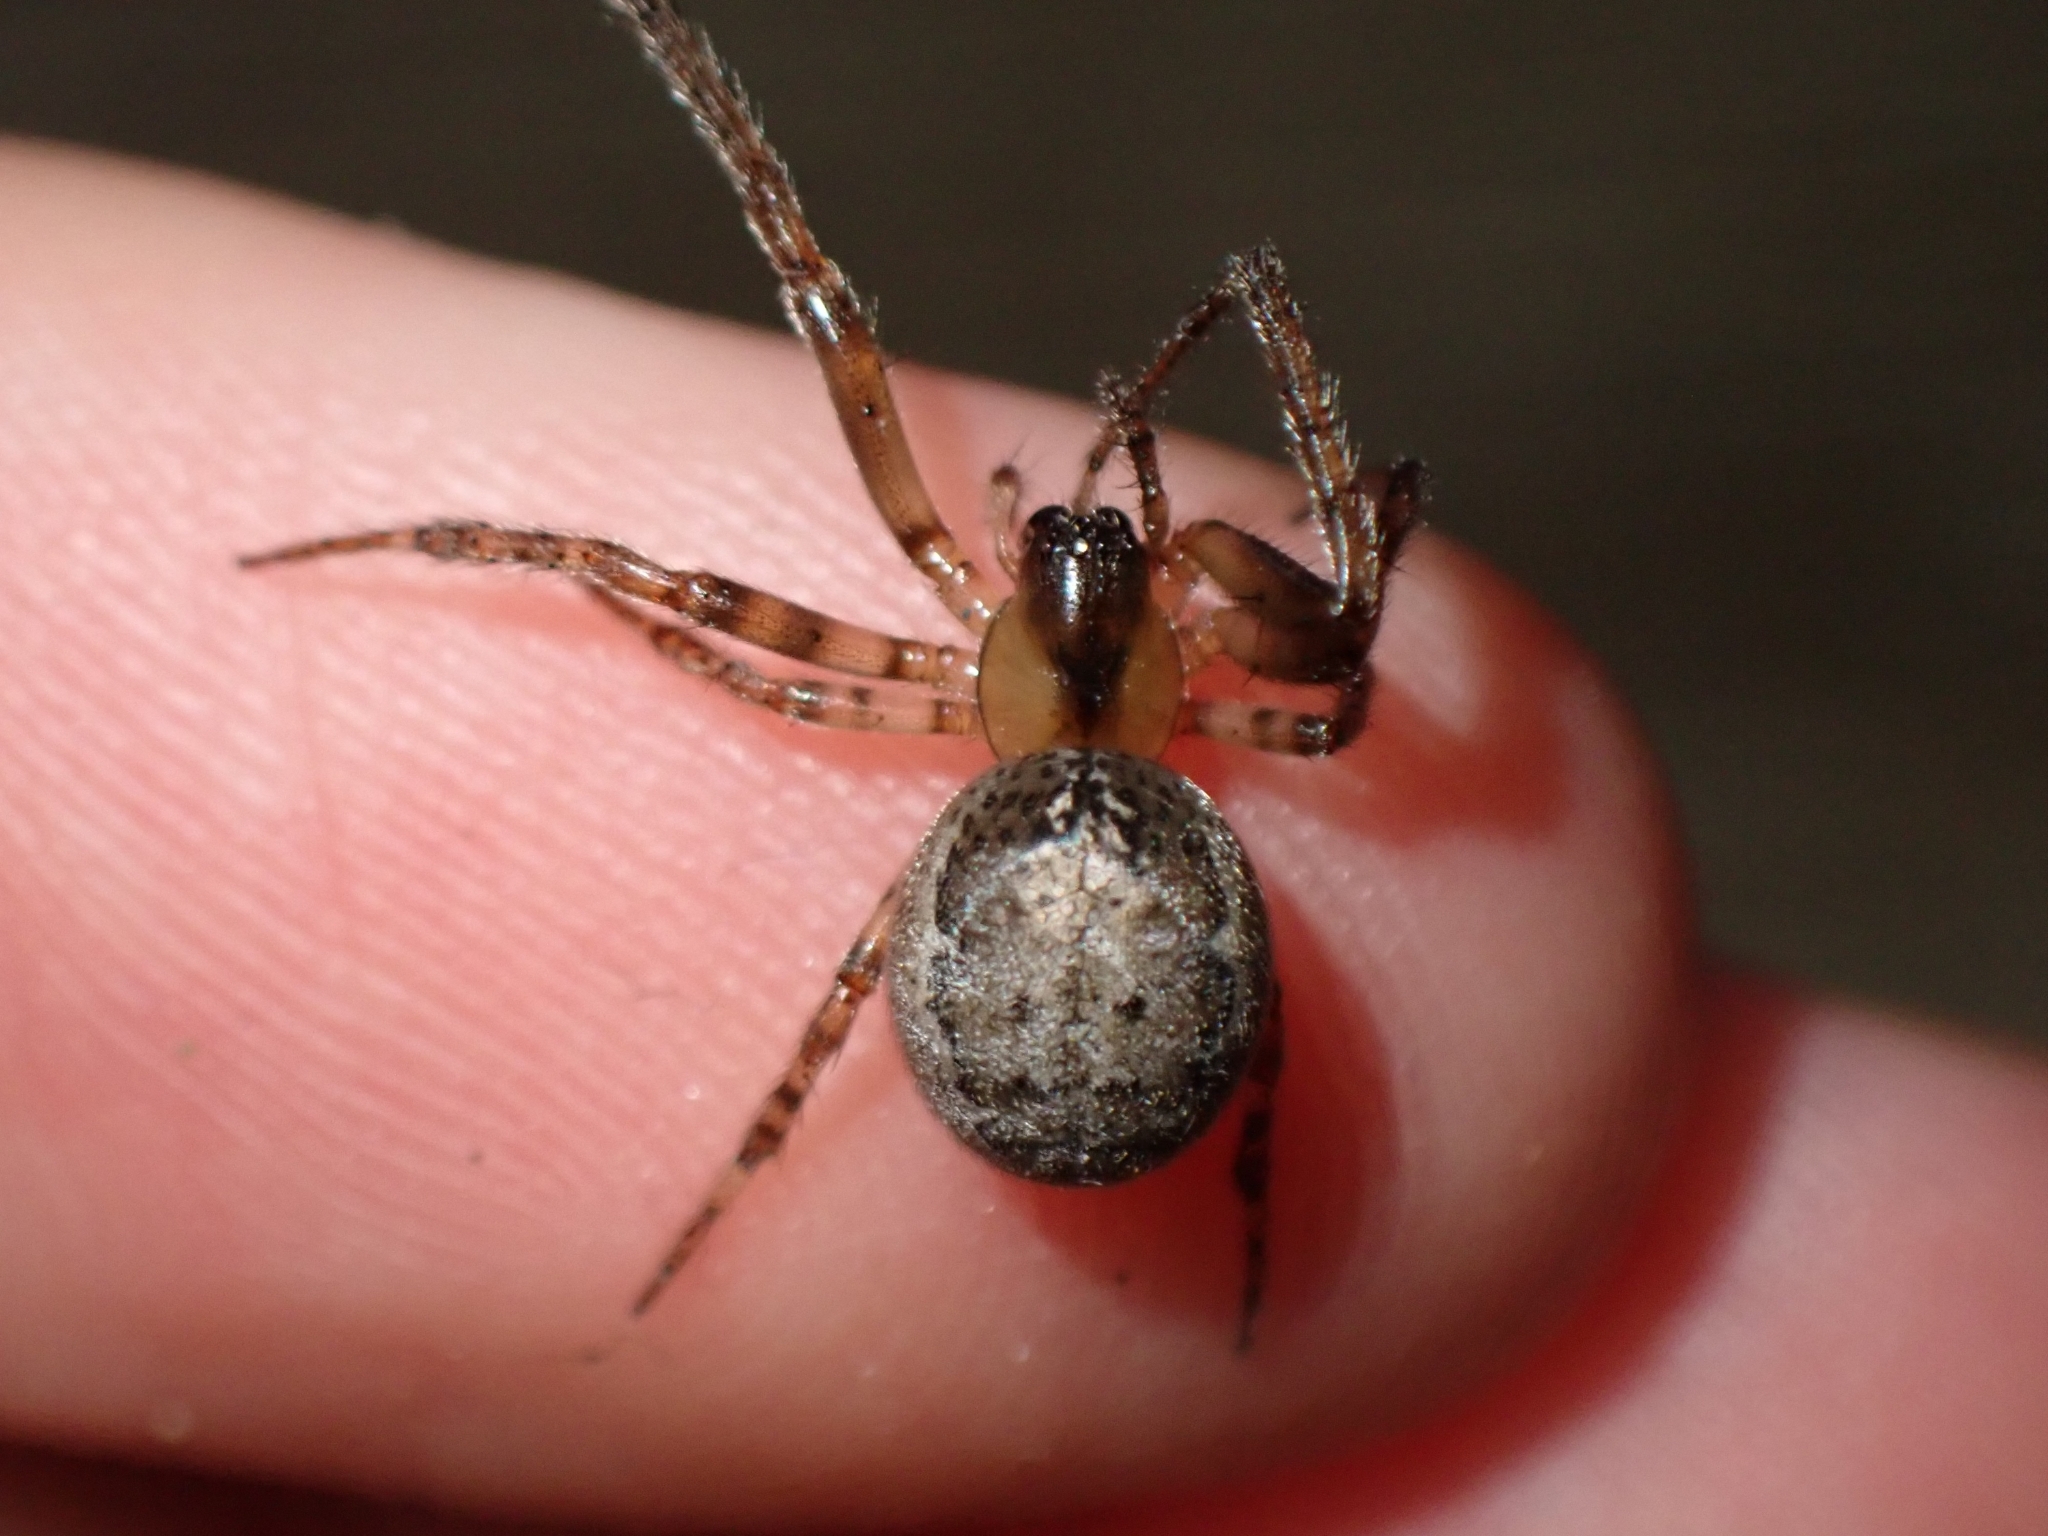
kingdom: Animalia
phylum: Arthropoda
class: Arachnida
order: Araneae
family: Araneidae
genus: Zygiella
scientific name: Zygiella x-notata
